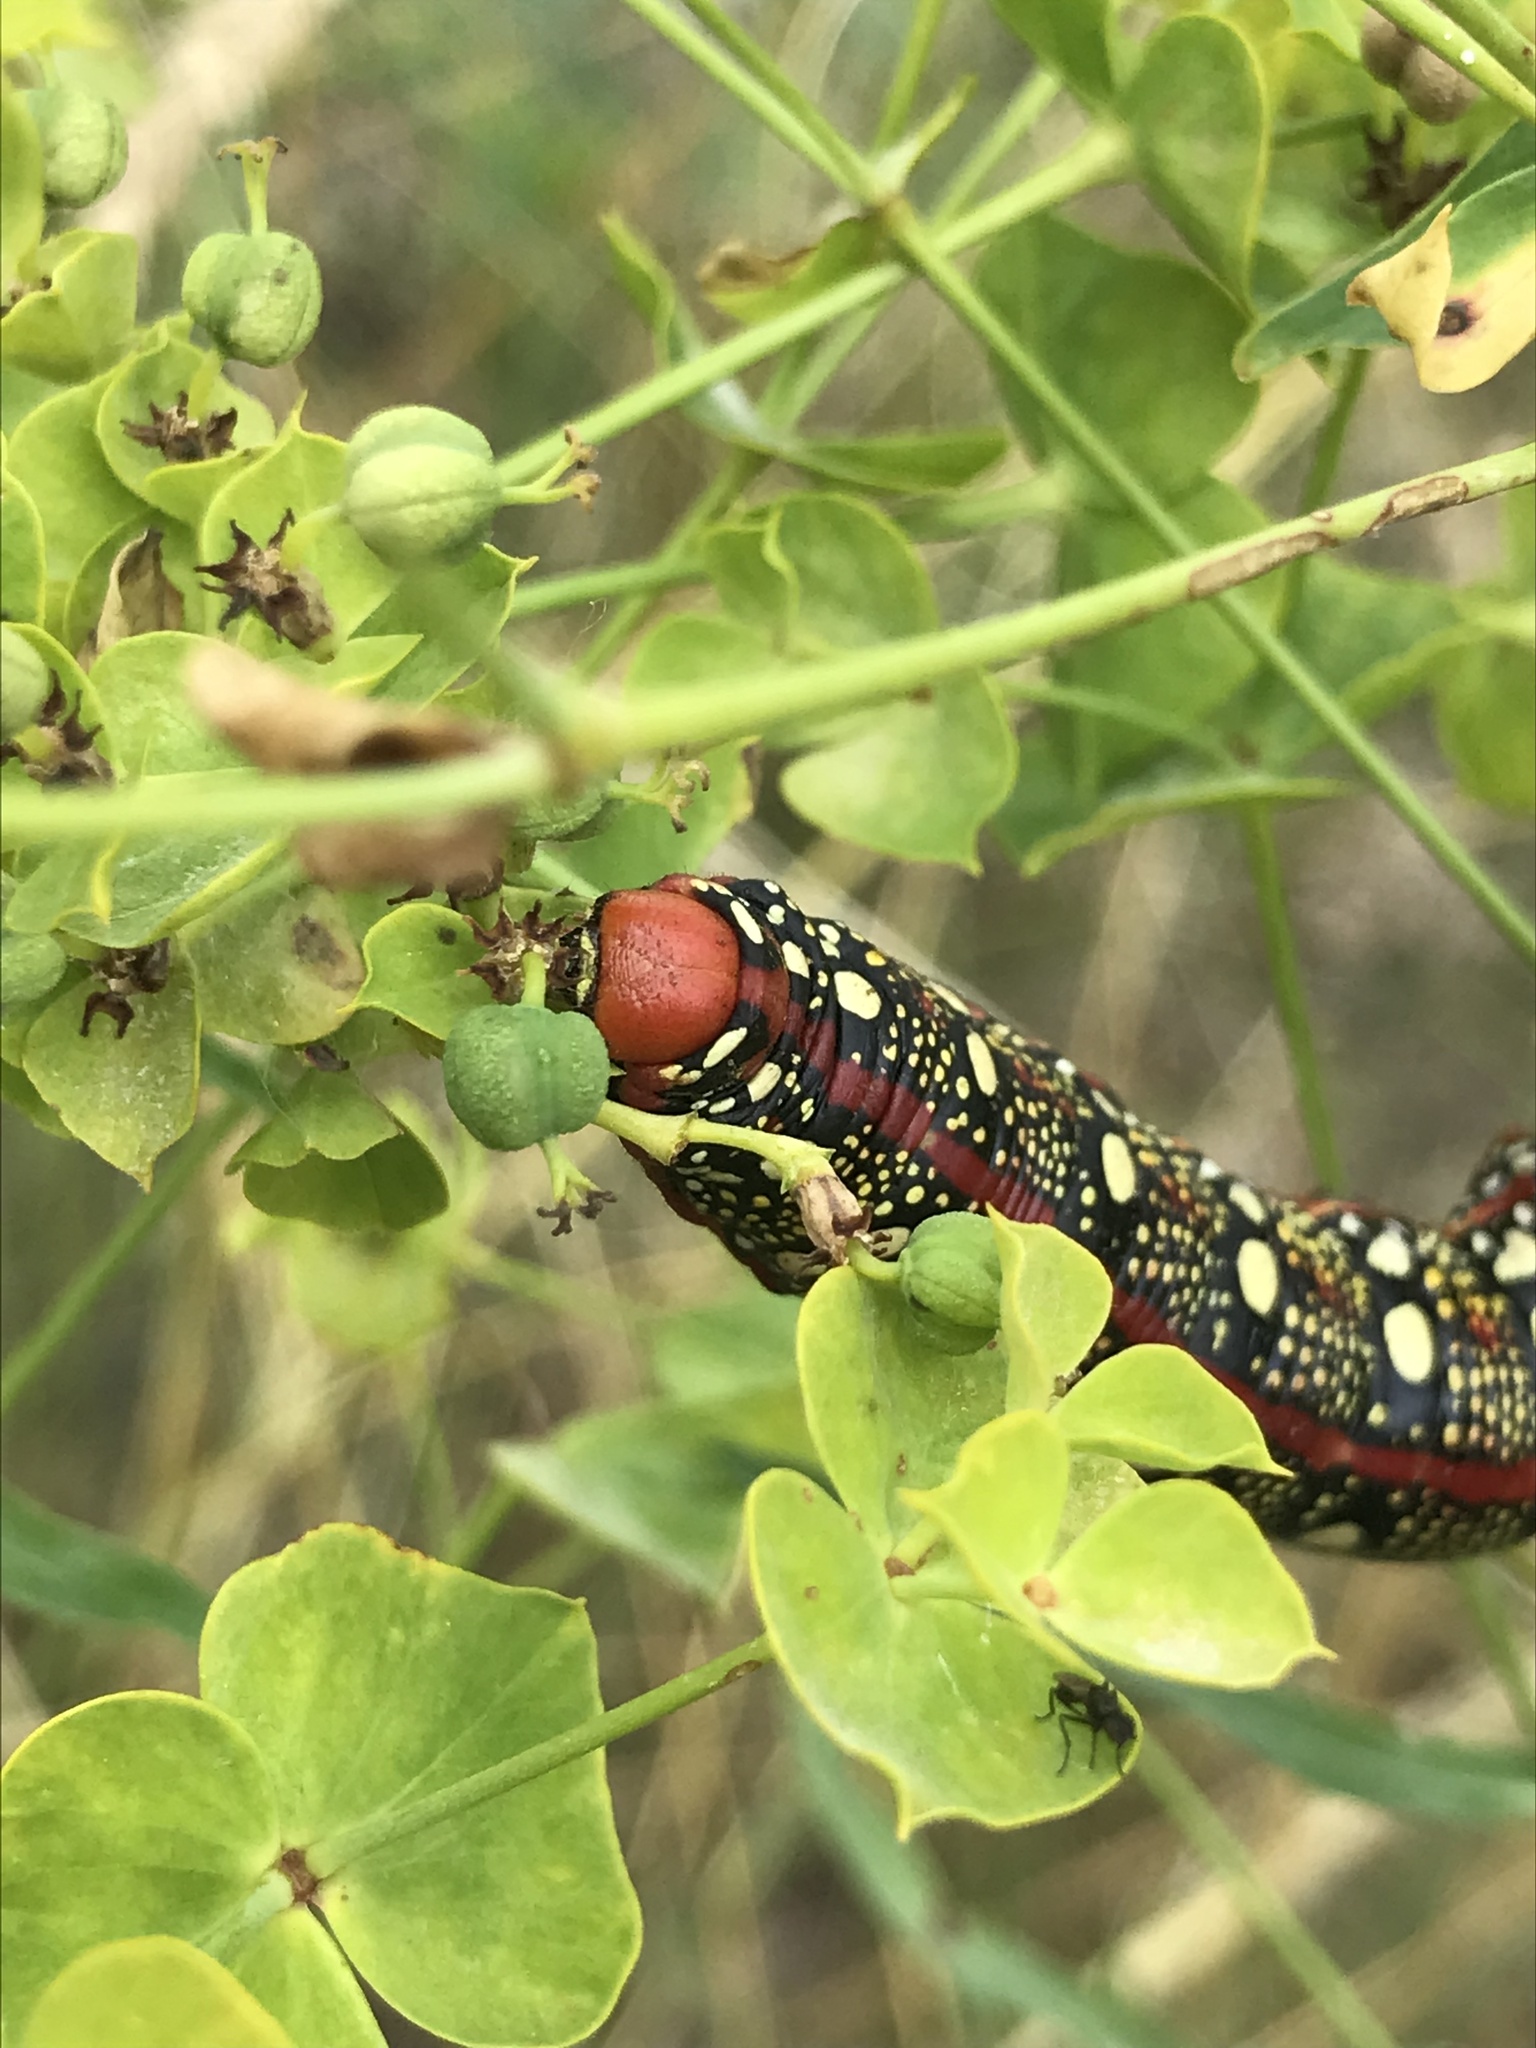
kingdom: Animalia
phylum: Arthropoda
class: Insecta
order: Lepidoptera
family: Sphingidae
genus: Hyles
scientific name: Hyles euphorbiae
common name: Spurge hawk-moth
